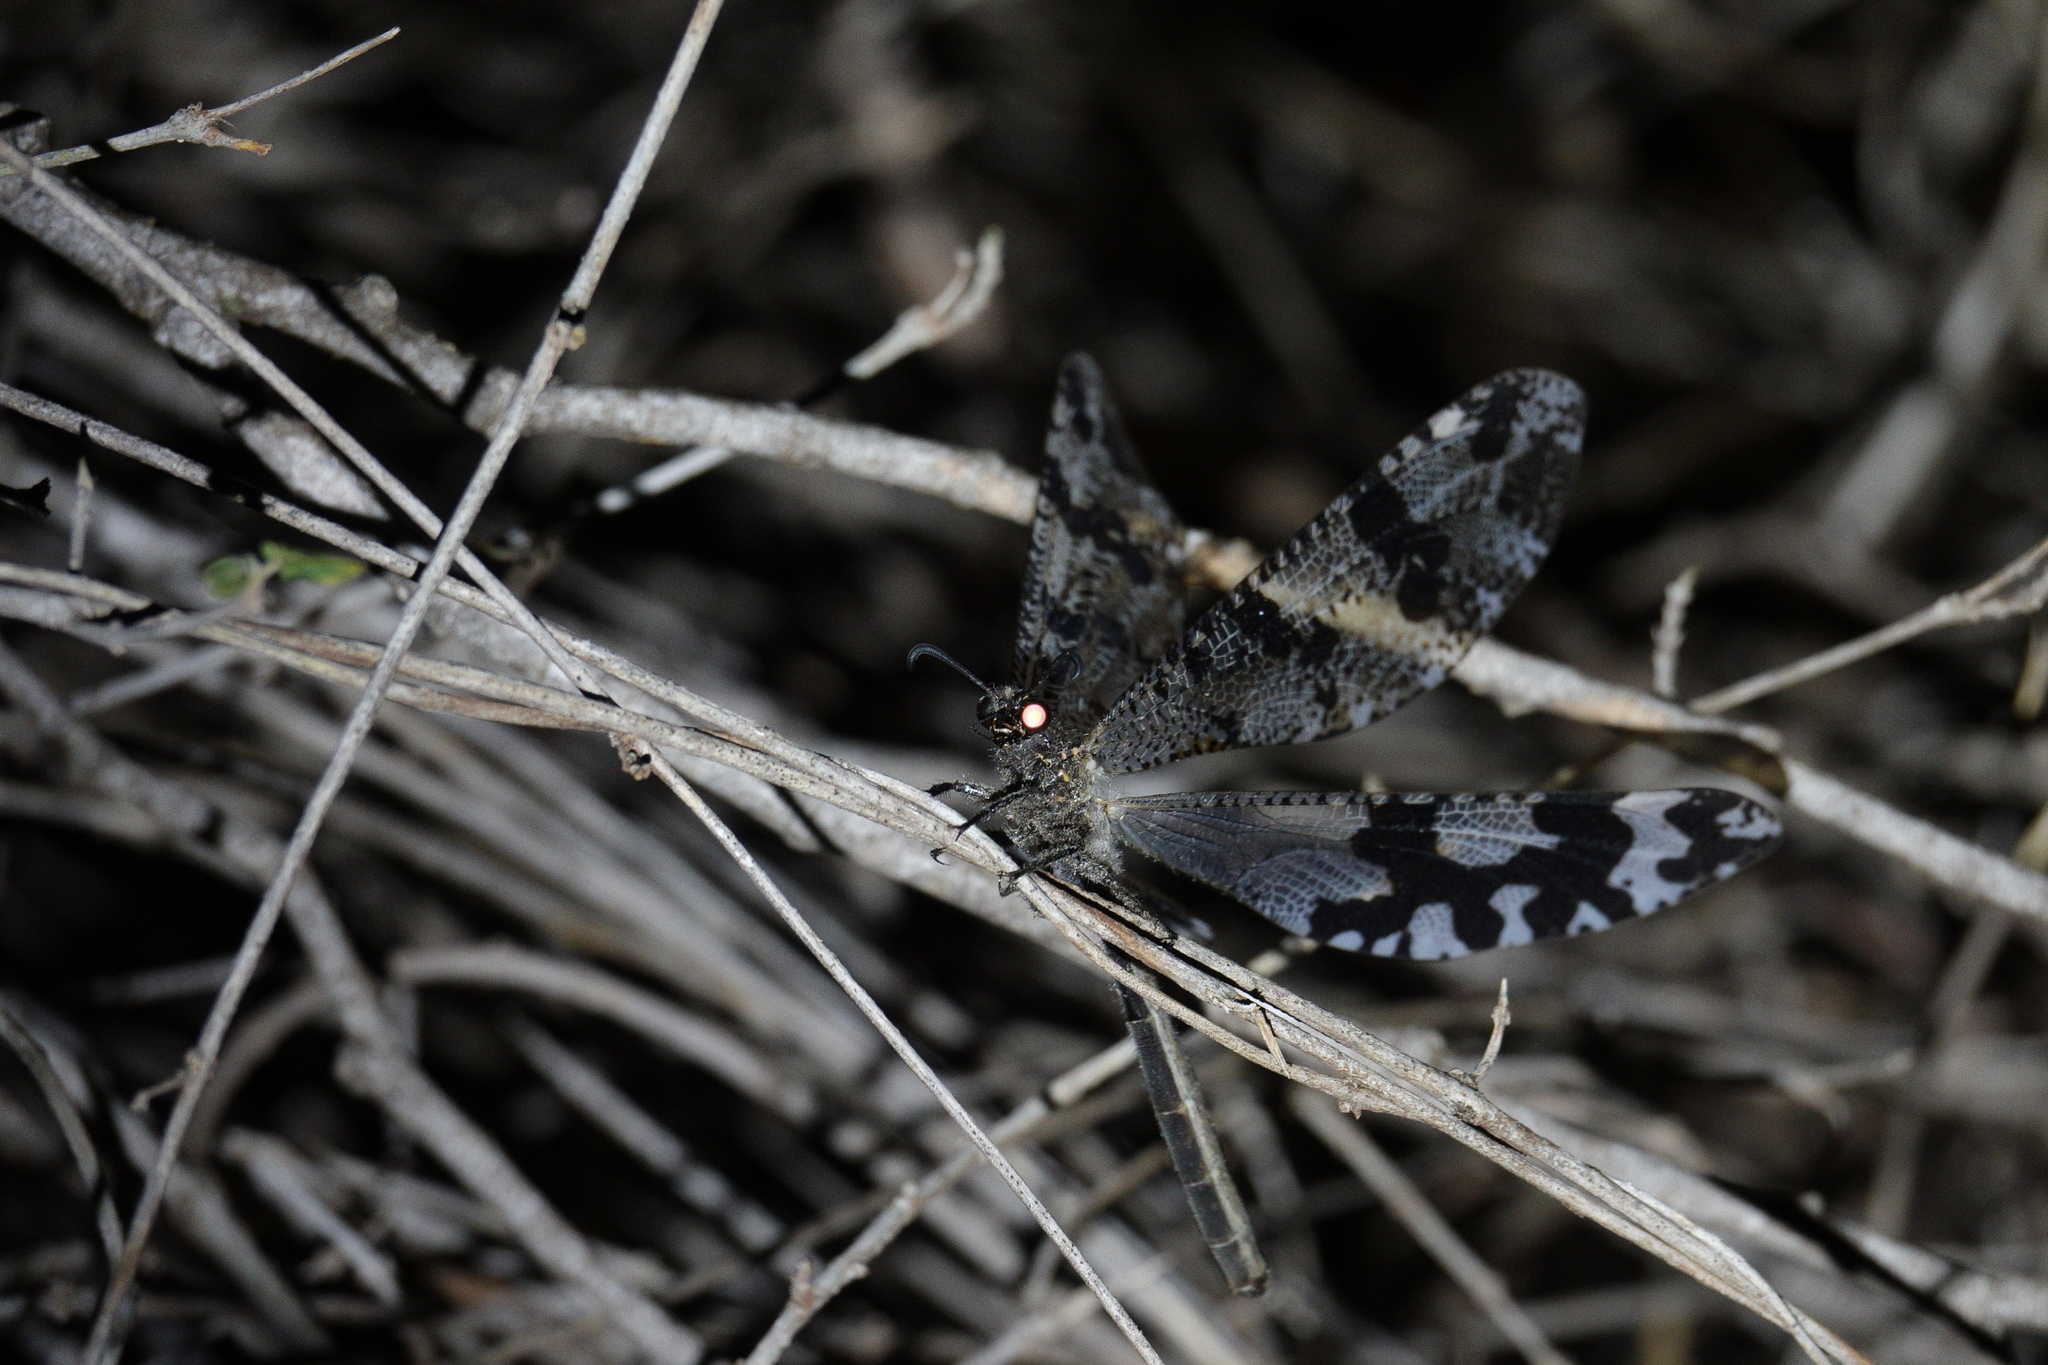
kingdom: Animalia
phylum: Arthropoda
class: Insecta
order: Neuroptera
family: Myrmeleontidae
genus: Palpares
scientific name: Palpares amitinus
